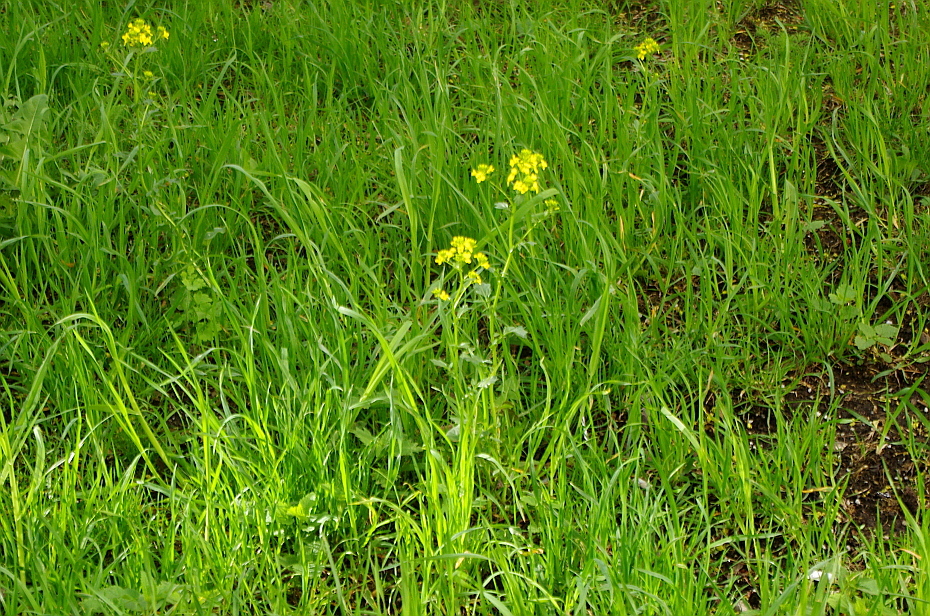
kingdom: Plantae
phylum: Tracheophyta
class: Magnoliopsida
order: Brassicales
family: Brassicaceae
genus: Barbarea
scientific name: Barbarea vulgaris
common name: Cressy-greens
